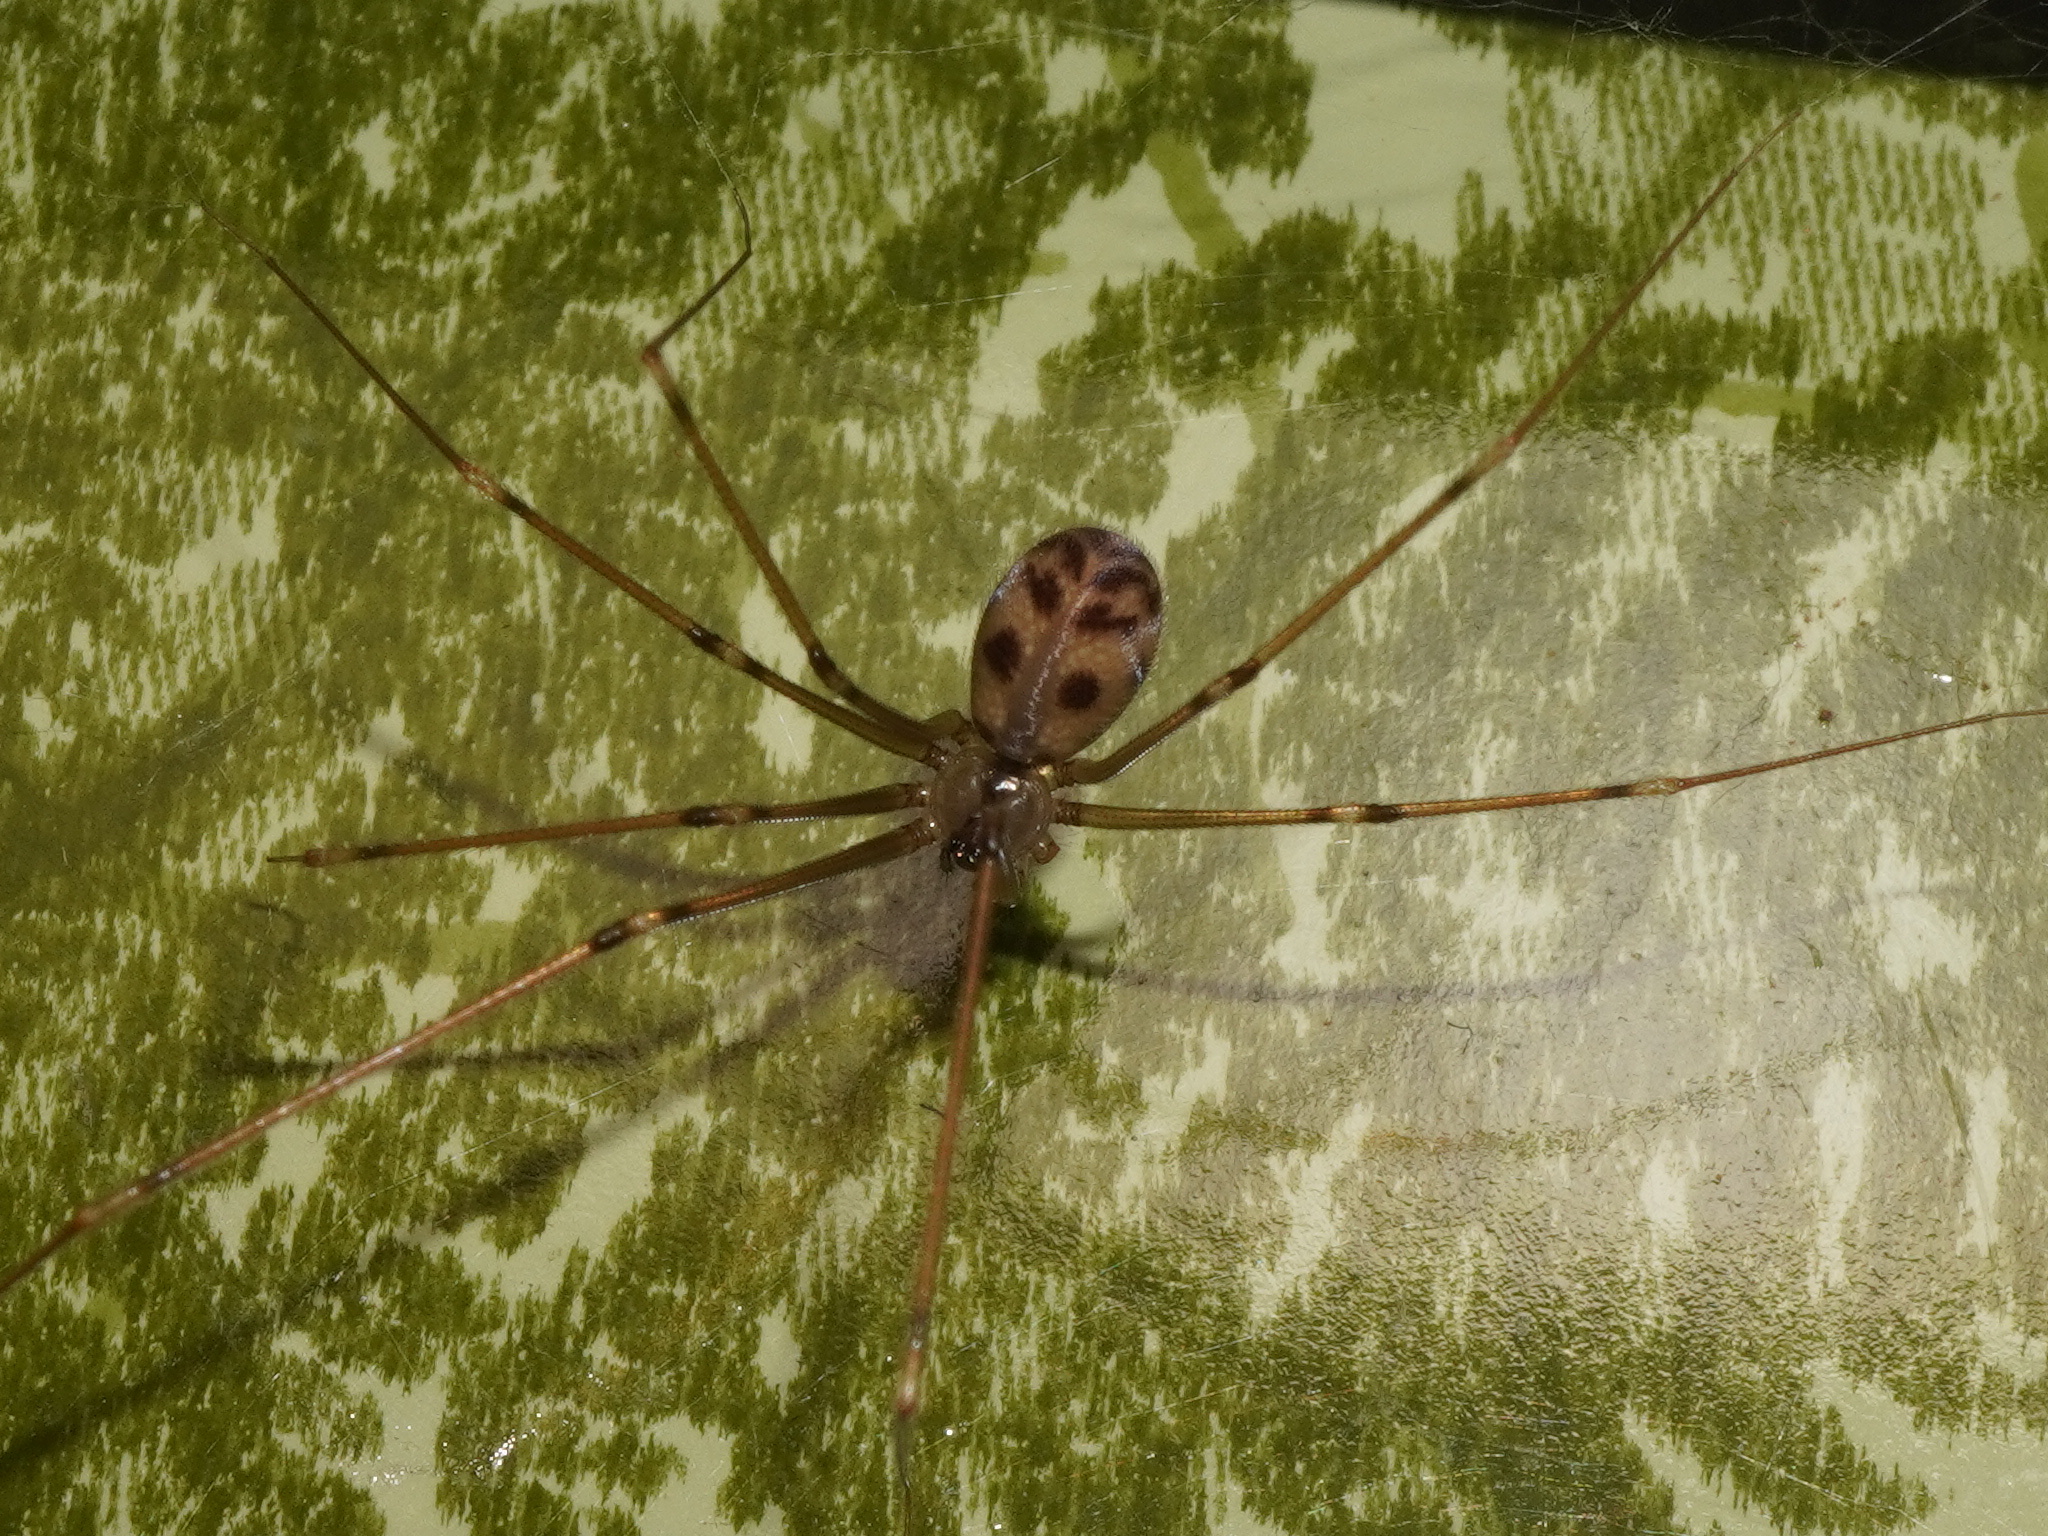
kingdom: Animalia
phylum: Arthropoda
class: Arachnida
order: Araneae
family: Pholcidae
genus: Hoplopholcus
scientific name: Hoplopholcus forskali
